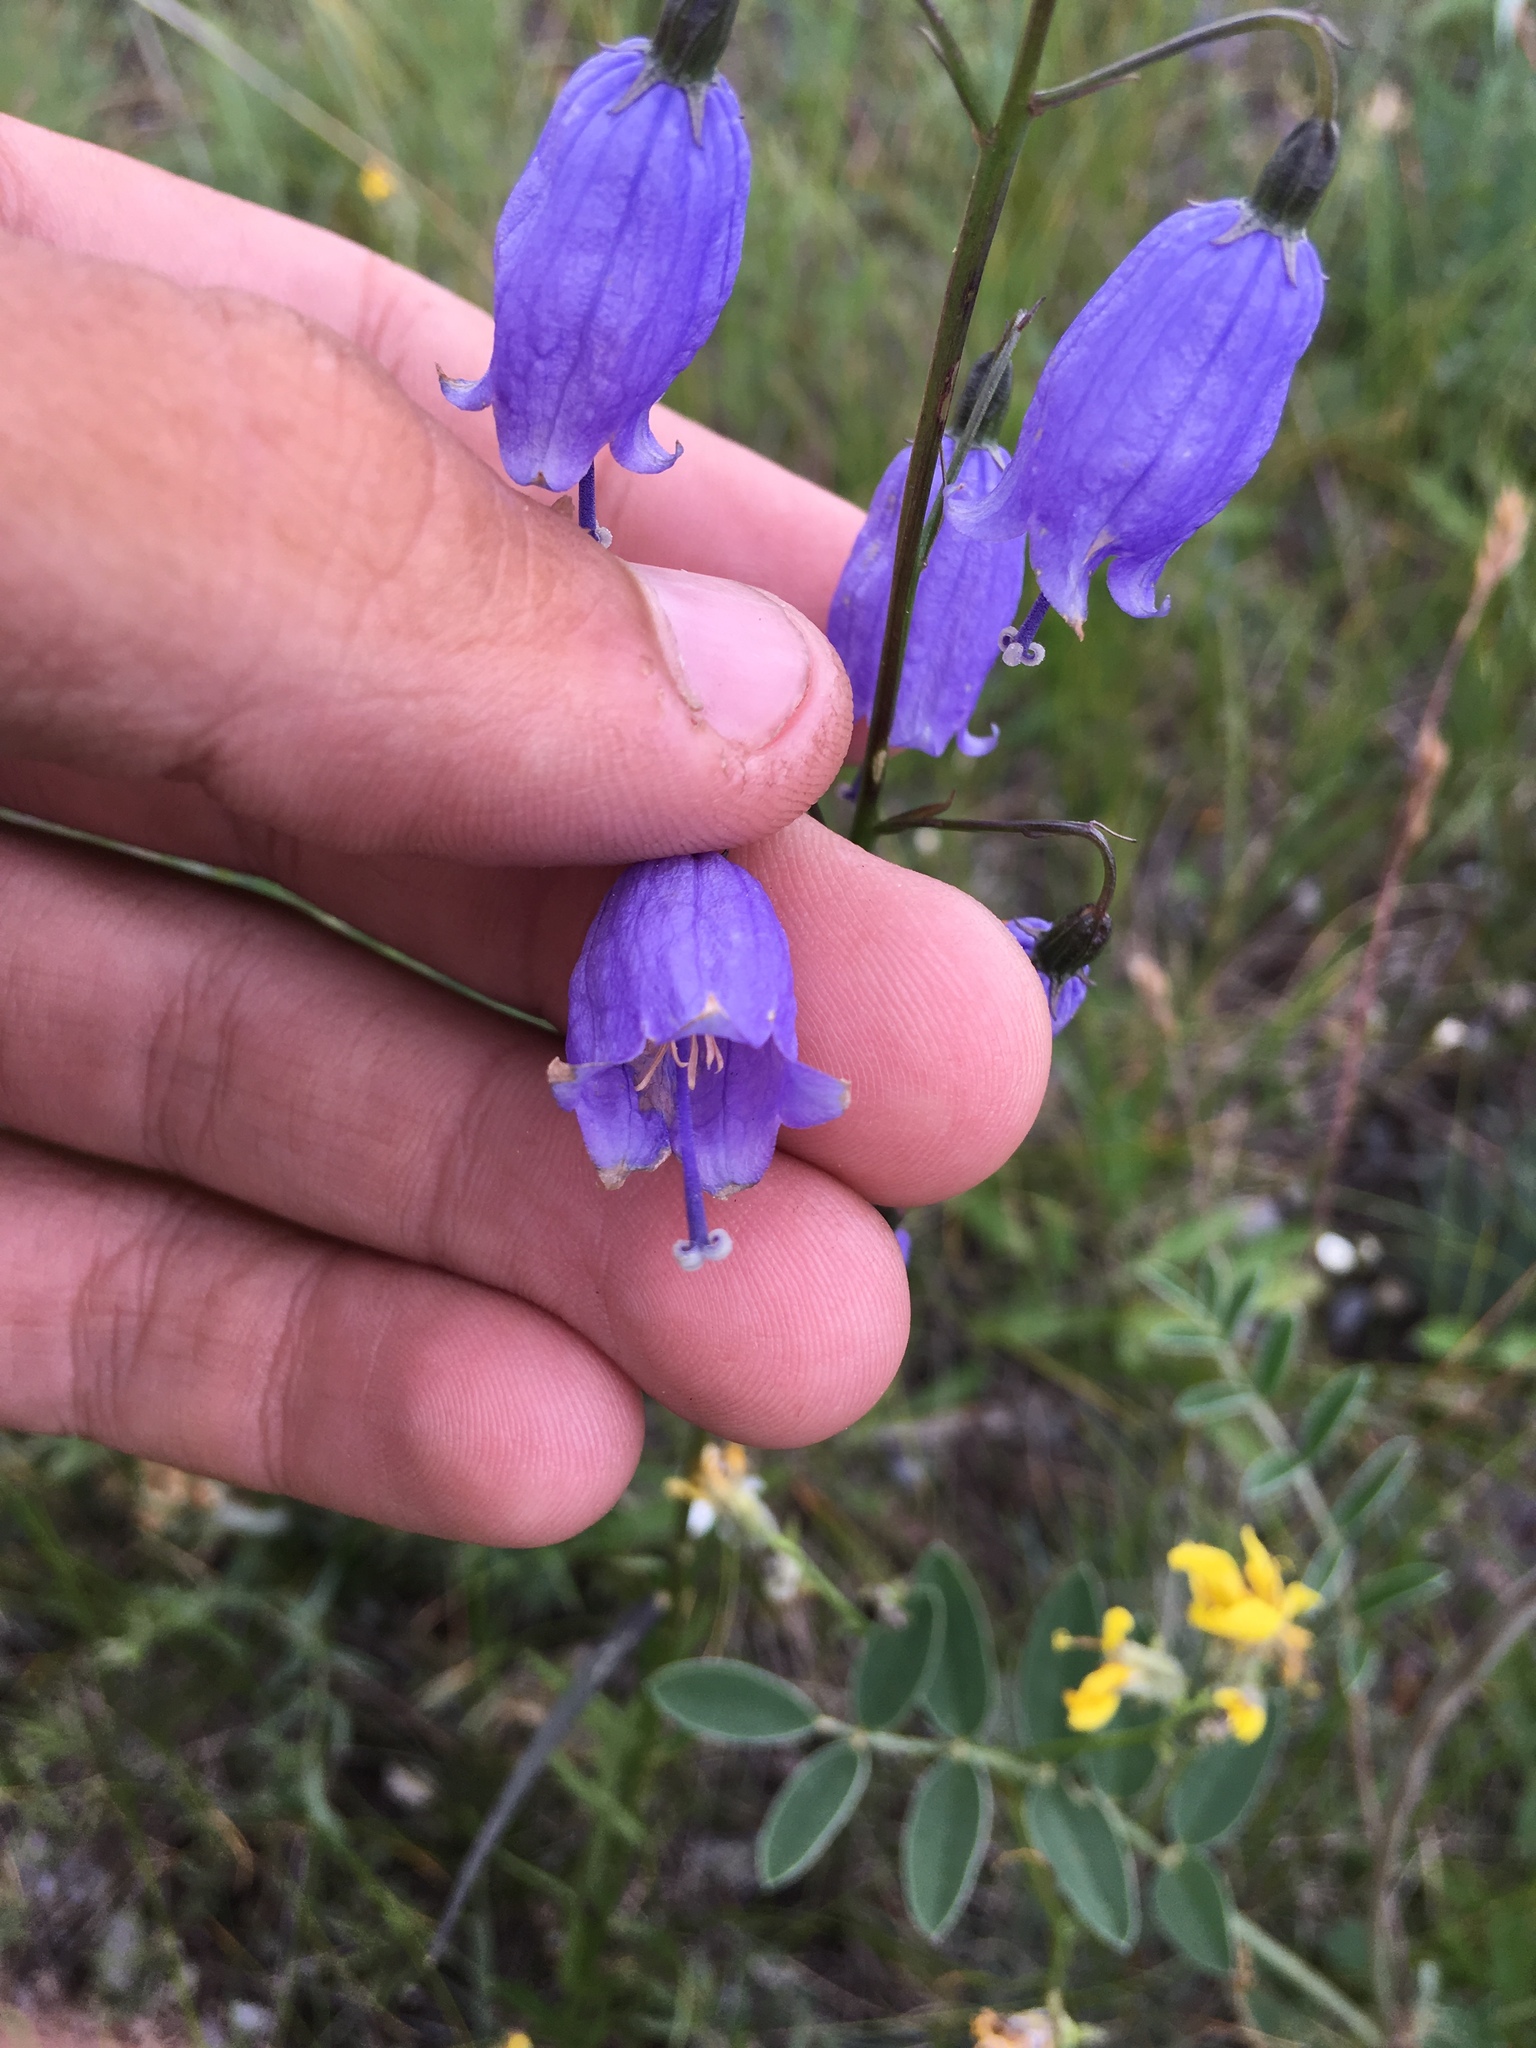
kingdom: Plantae
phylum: Tracheophyta
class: Magnoliopsida
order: Asterales
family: Campanulaceae
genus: Adenophora
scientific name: Adenophora stenanthina
